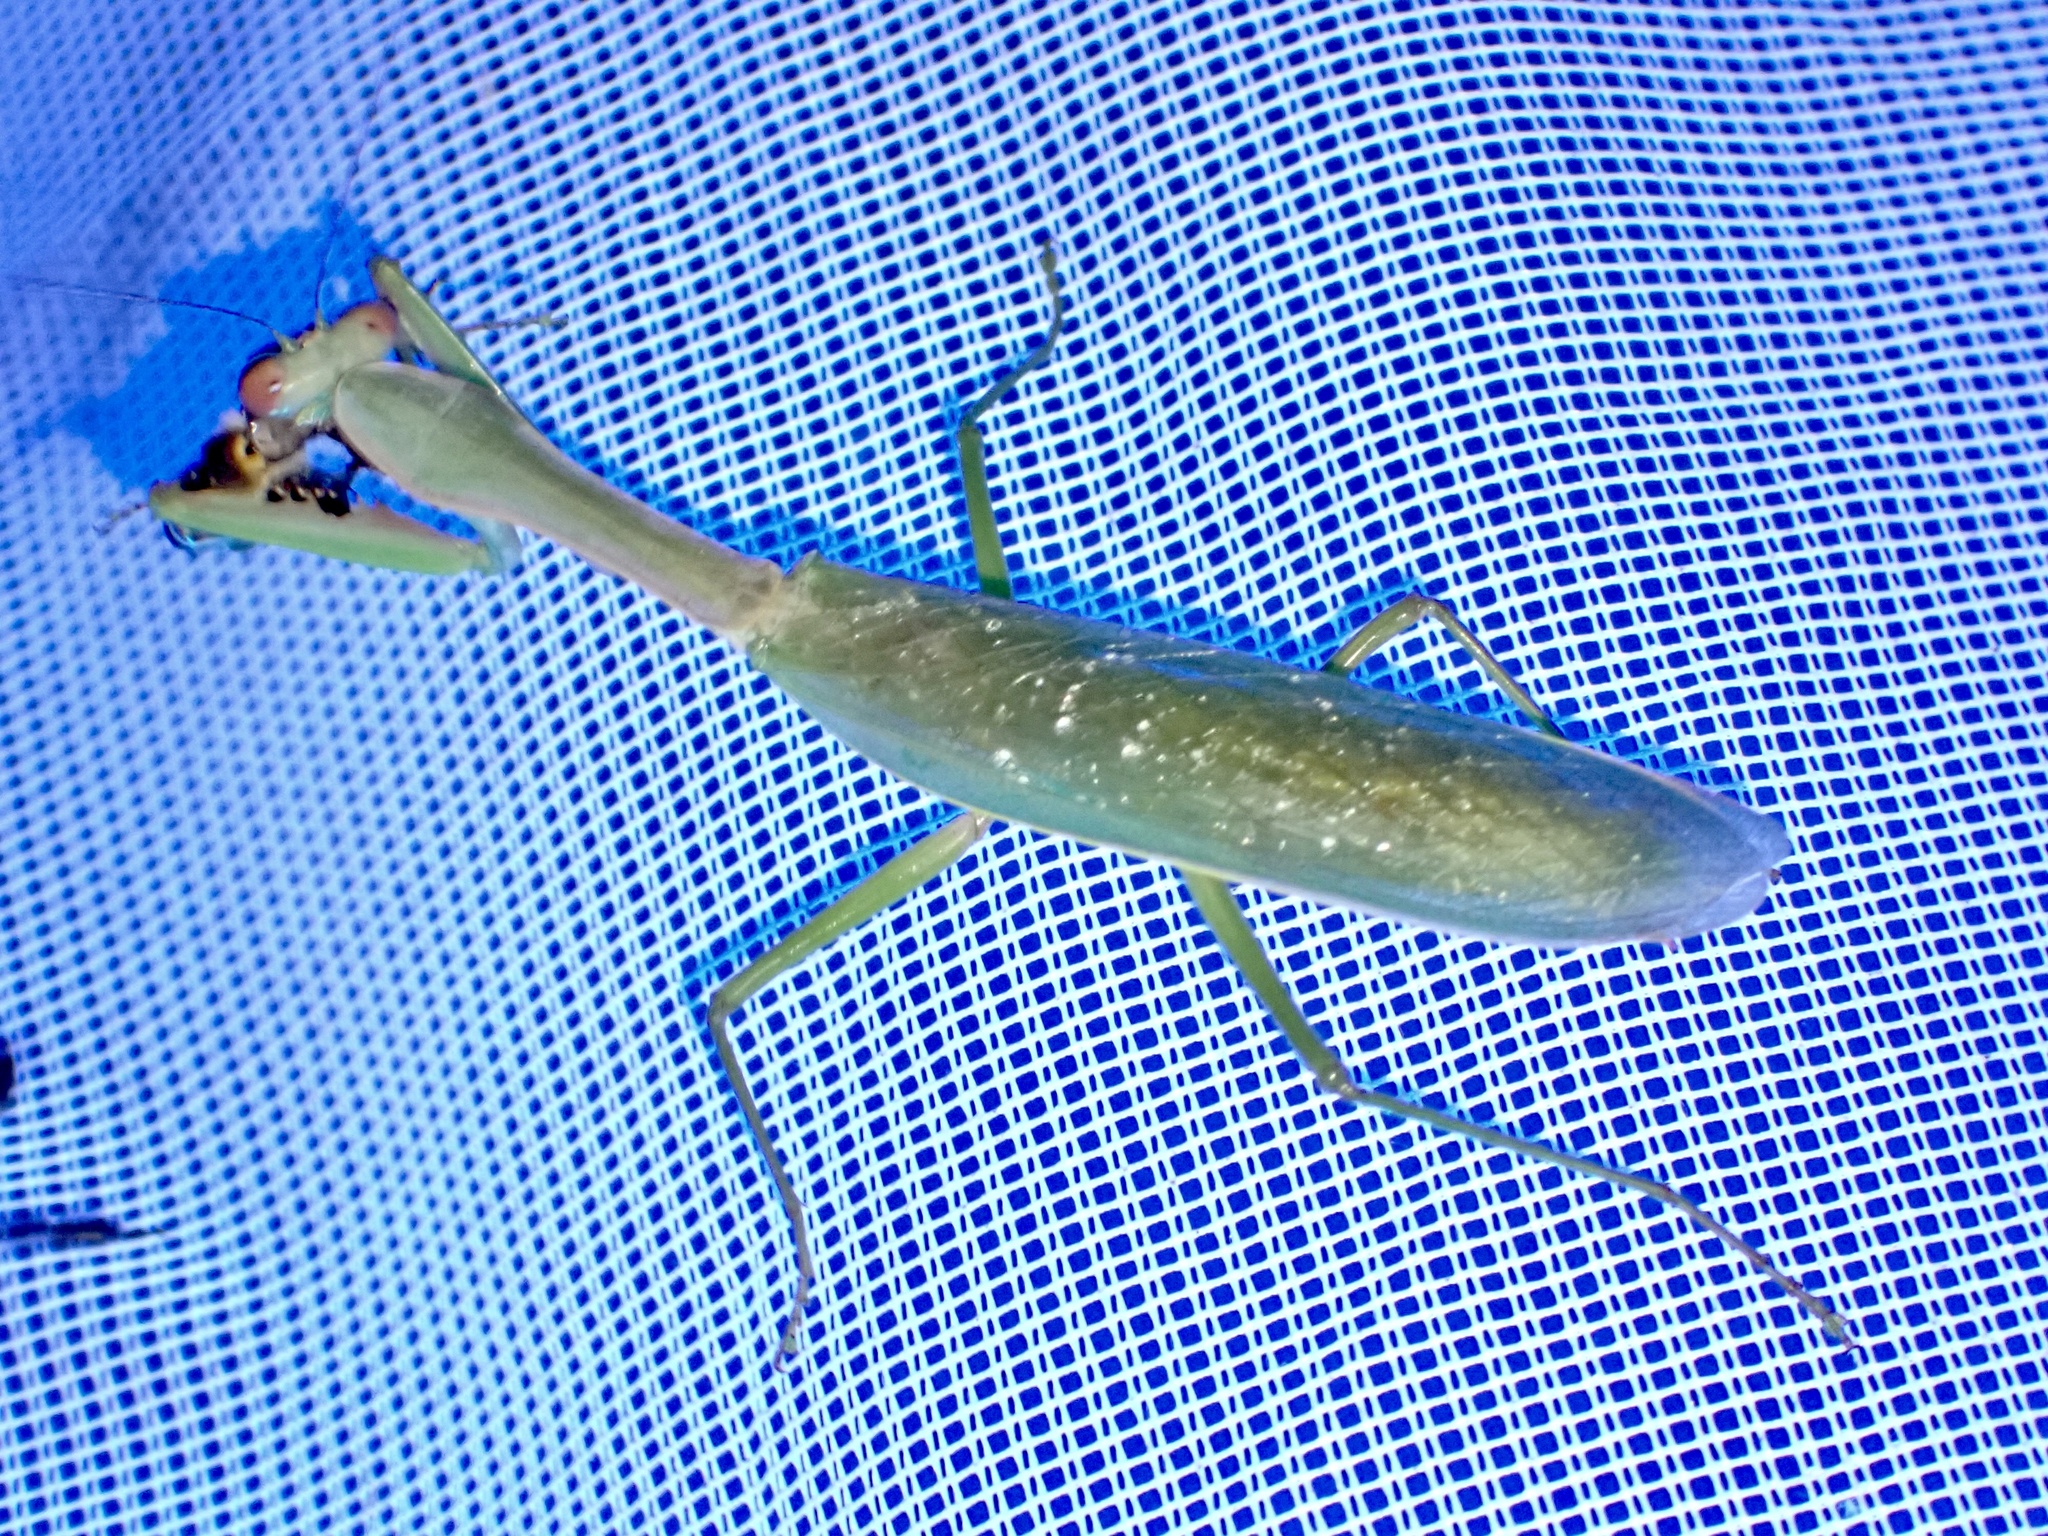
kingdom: Animalia
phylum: Arthropoda
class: Insecta
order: Mantodea
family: Mantidae
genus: Hierodula
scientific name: Hierodula obtusata
